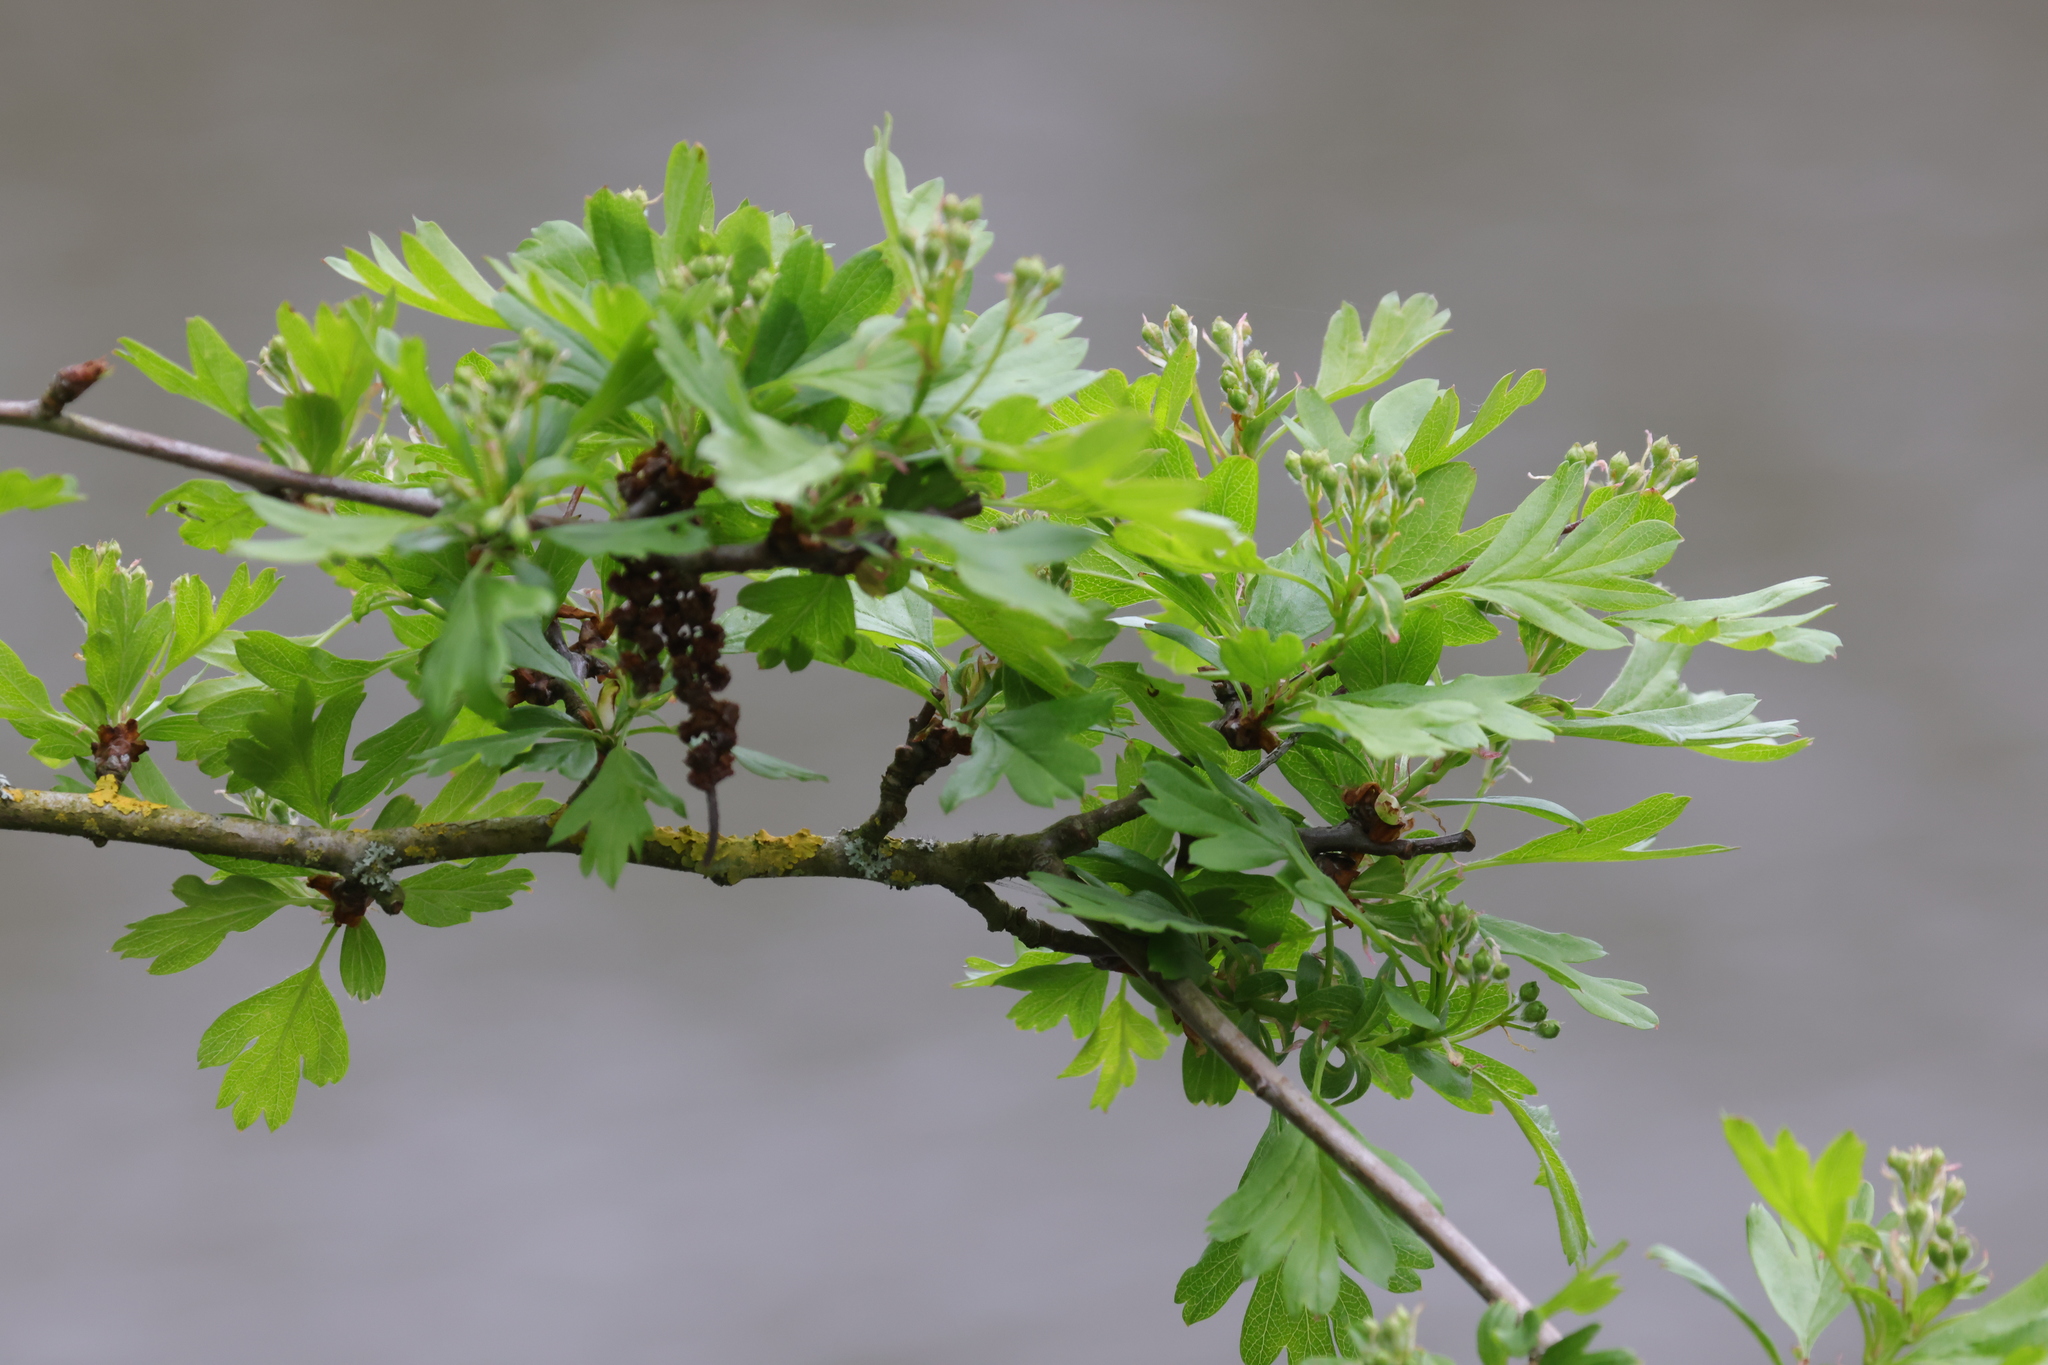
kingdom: Plantae
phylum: Tracheophyta
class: Magnoliopsida
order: Rosales
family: Rosaceae
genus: Crataegus
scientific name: Crataegus monogyna
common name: Hawthorn
